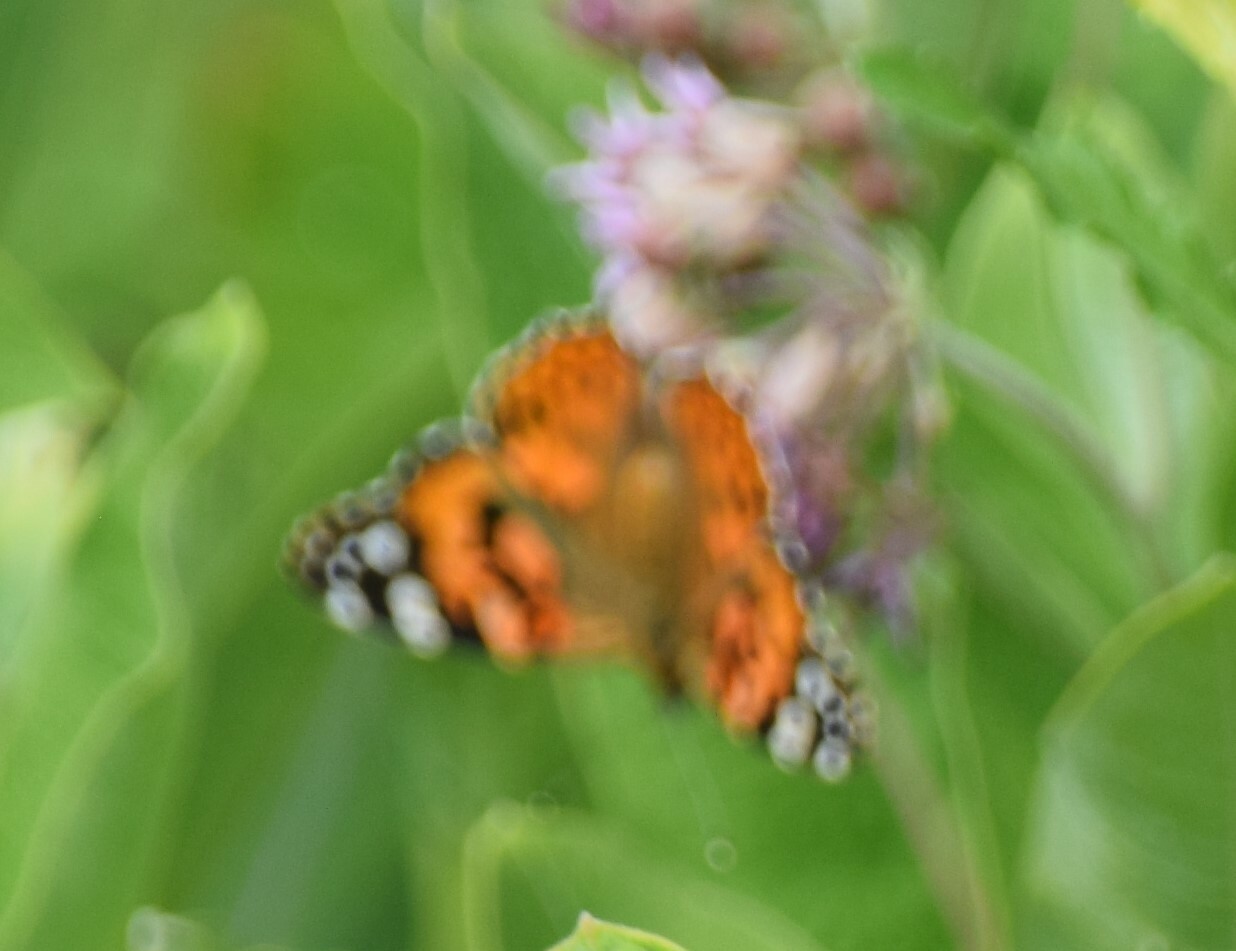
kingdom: Animalia
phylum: Arthropoda
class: Insecta
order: Lepidoptera
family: Nymphalidae
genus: Vanessa
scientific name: Vanessa cardui
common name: Painted lady
